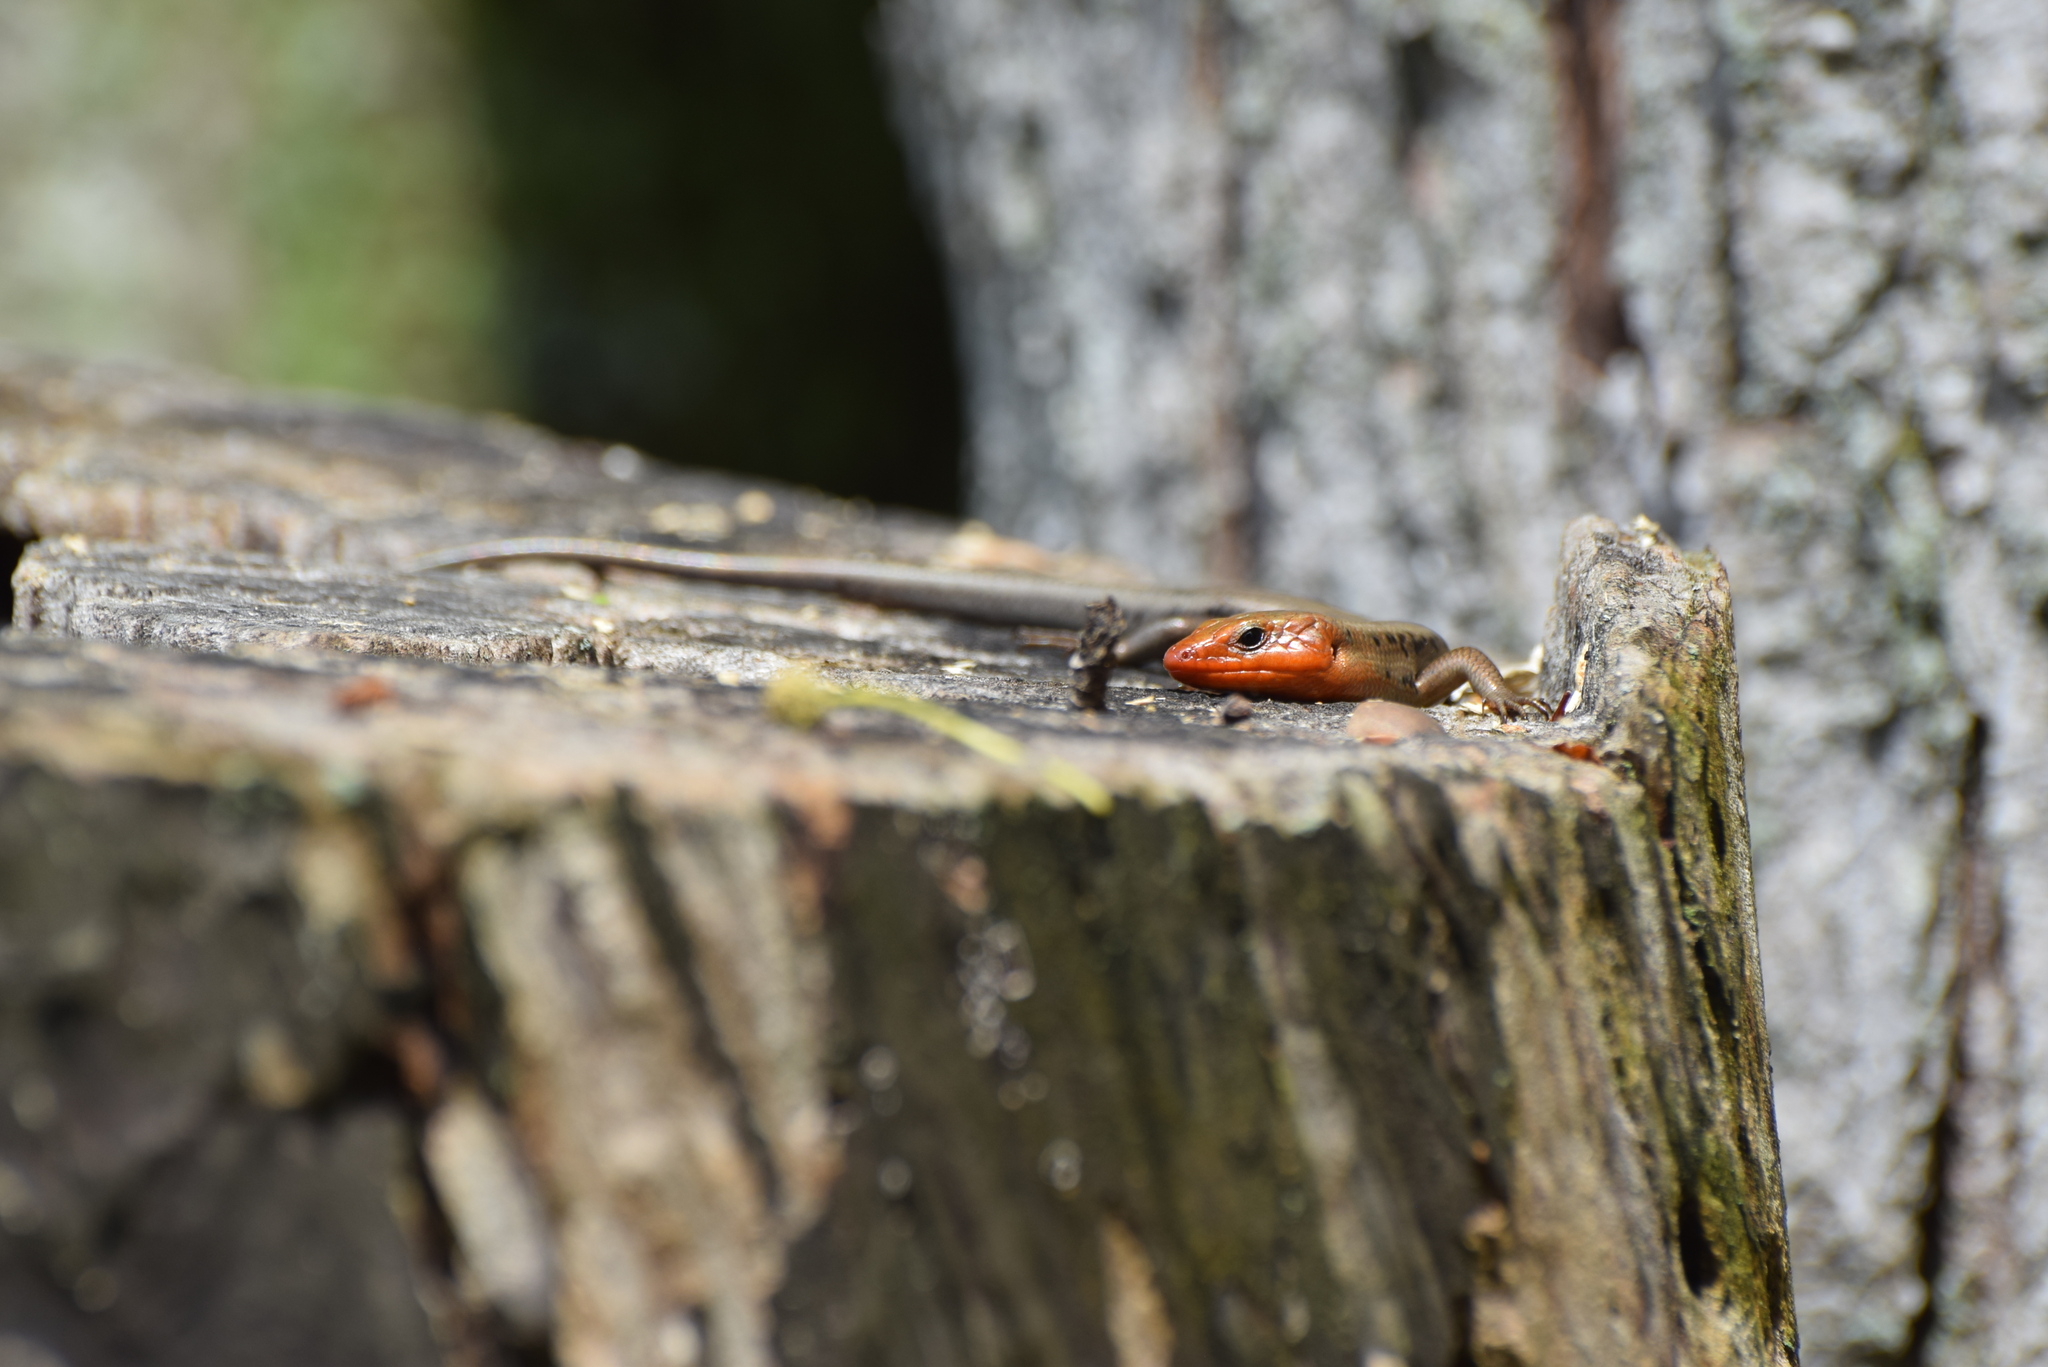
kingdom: Animalia
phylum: Chordata
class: Squamata
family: Scincidae
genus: Plestiodon
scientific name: Plestiodon fasciatus
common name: Five-lined skink
